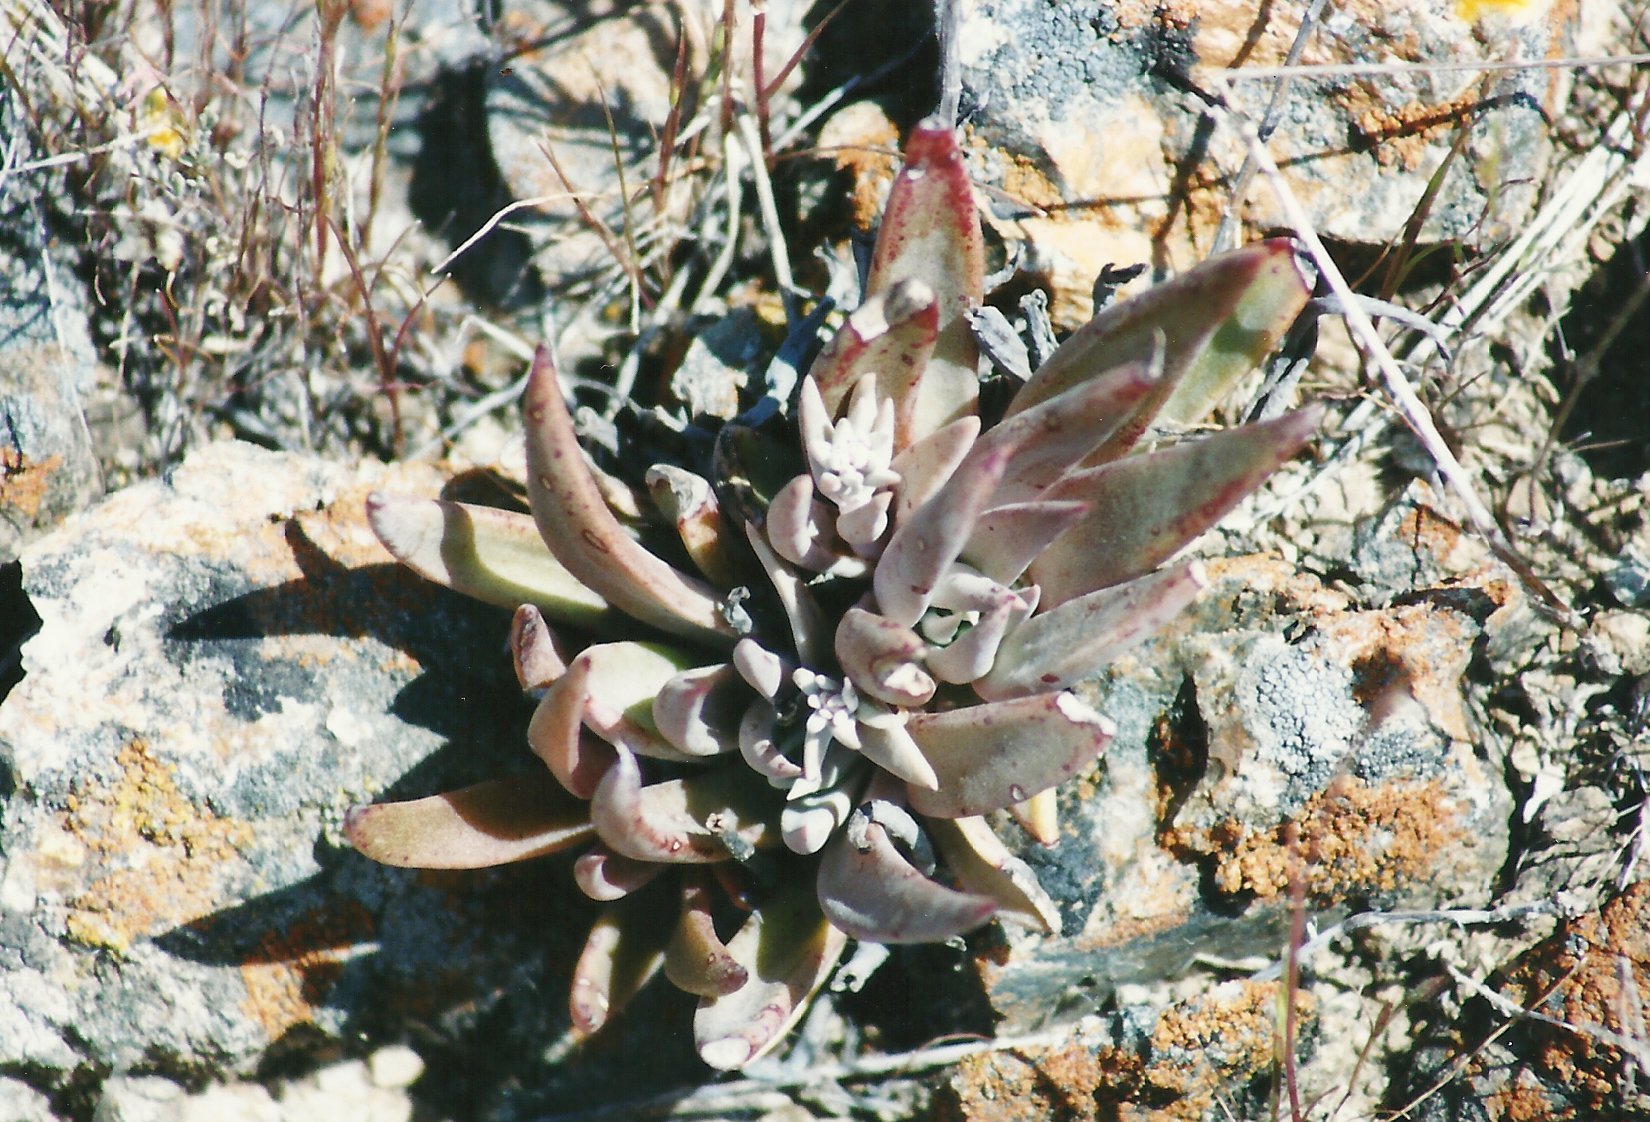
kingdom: Plantae
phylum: Tracheophyta
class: Magnoliopsida
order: Saxifragales
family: Crassulaceae
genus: Dudleya
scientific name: Dudleya abramsii
